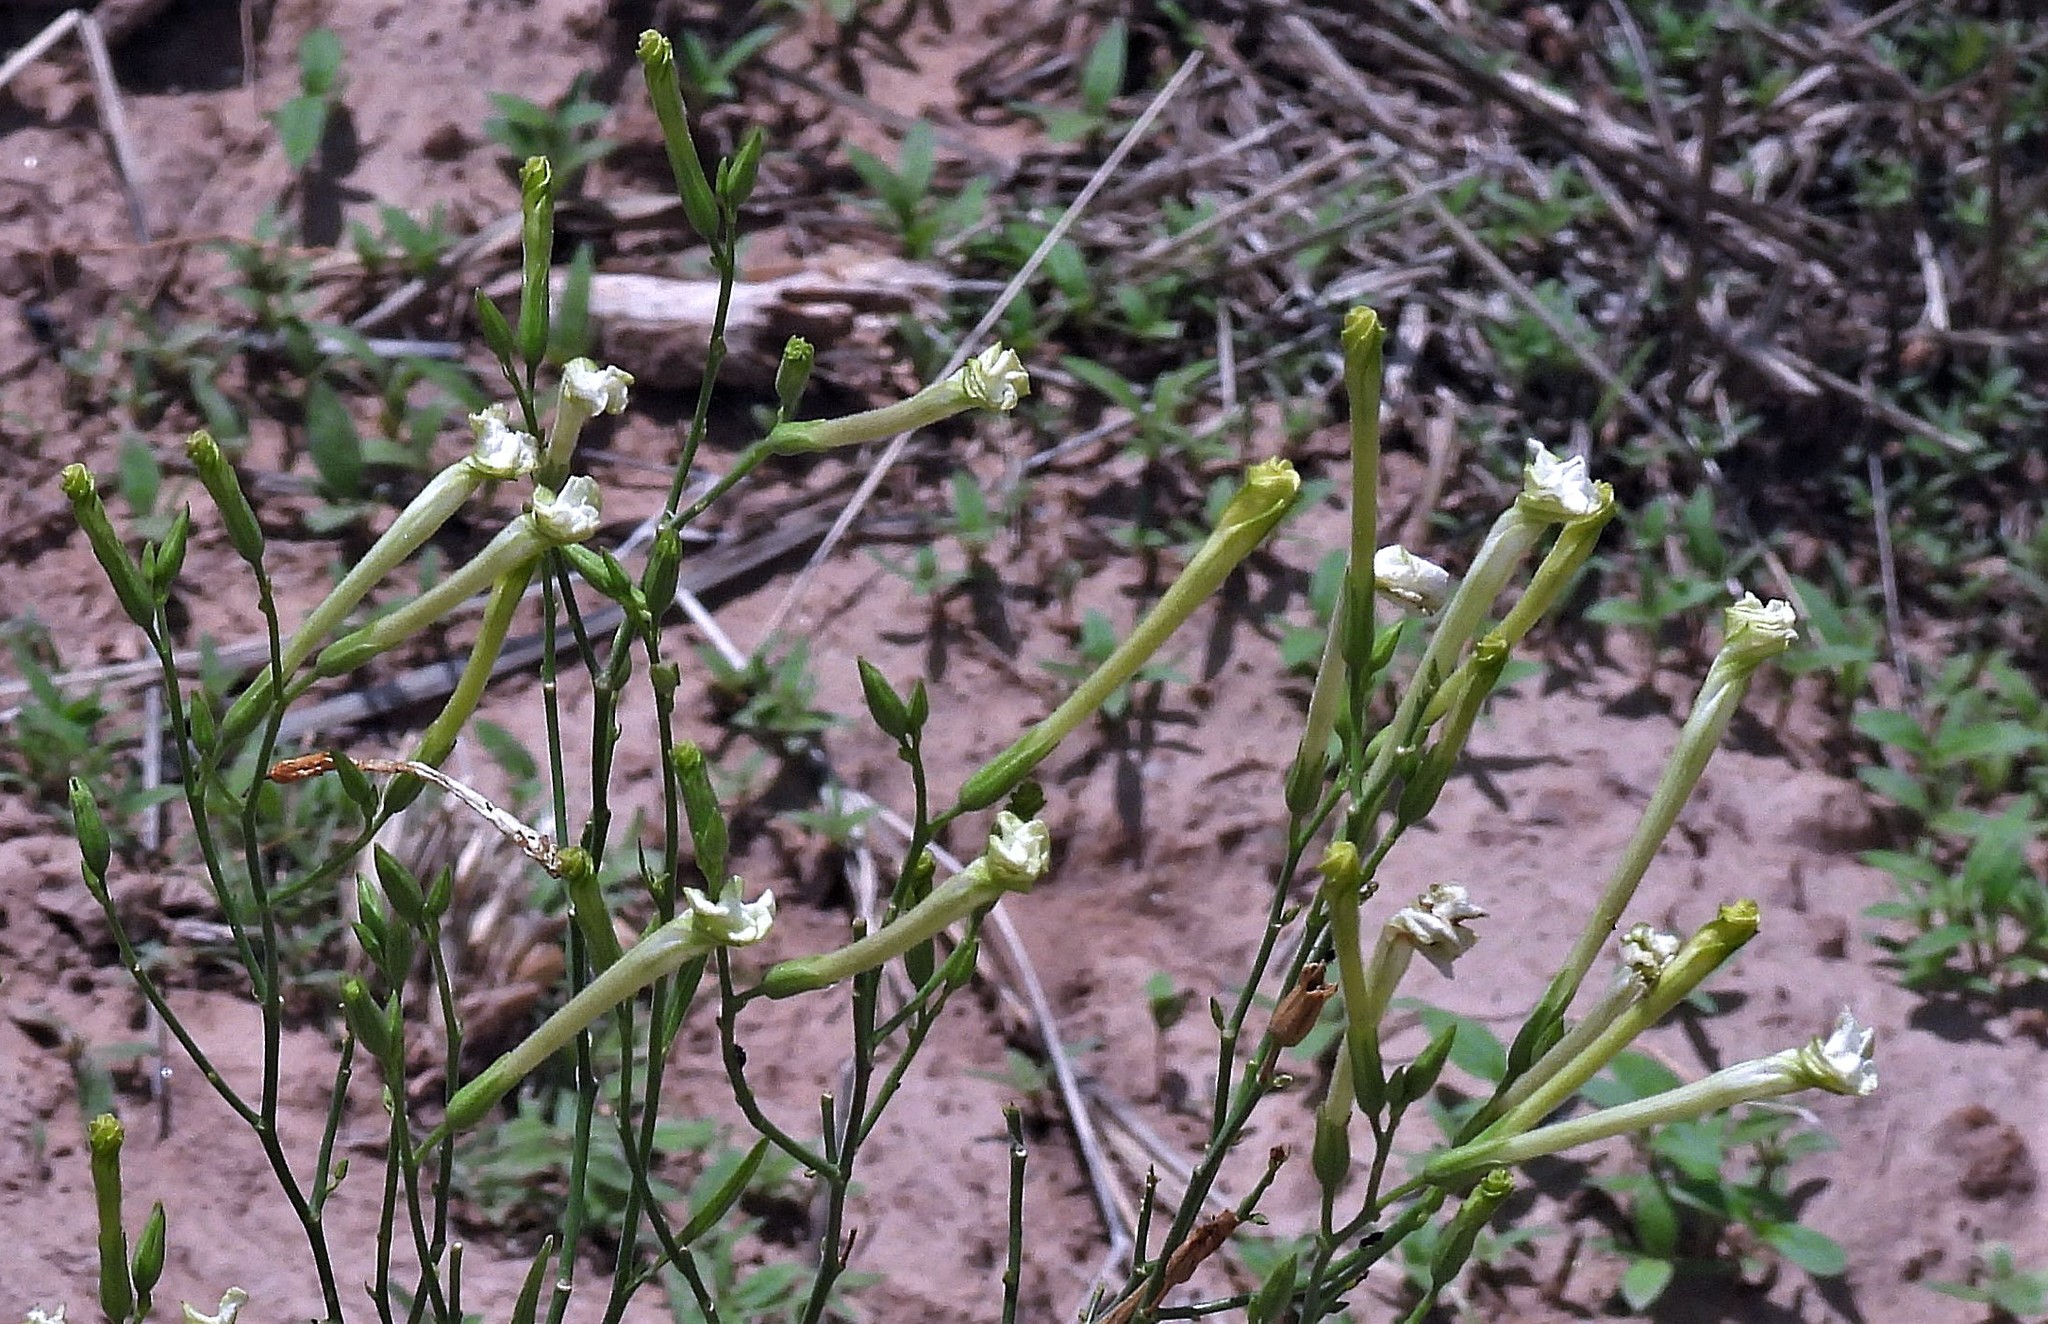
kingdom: Plantae
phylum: Tracheophyta
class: Magnoliopsida
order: Solanales
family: Solanaceae
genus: Nicotiana
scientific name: Nicotiana paa
